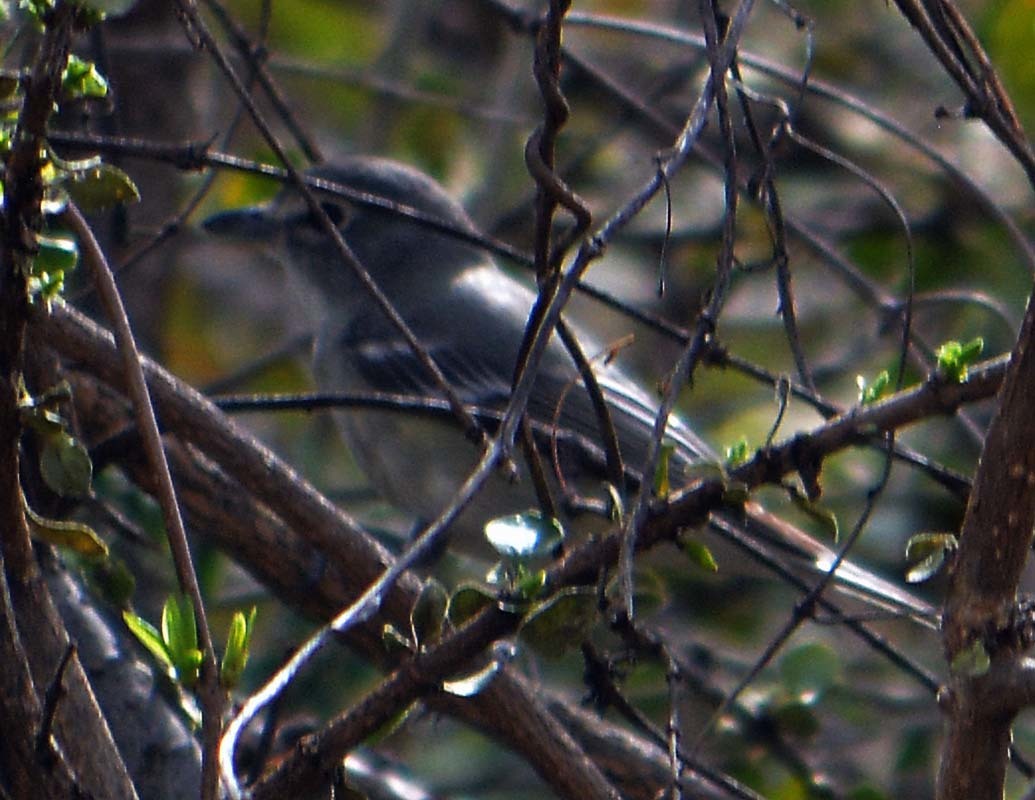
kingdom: Animalia
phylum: Chordata
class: Aves
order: Passeriformes
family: Vireonidae
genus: Vireo
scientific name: Vireo cassinii
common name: Cassin's vireo
